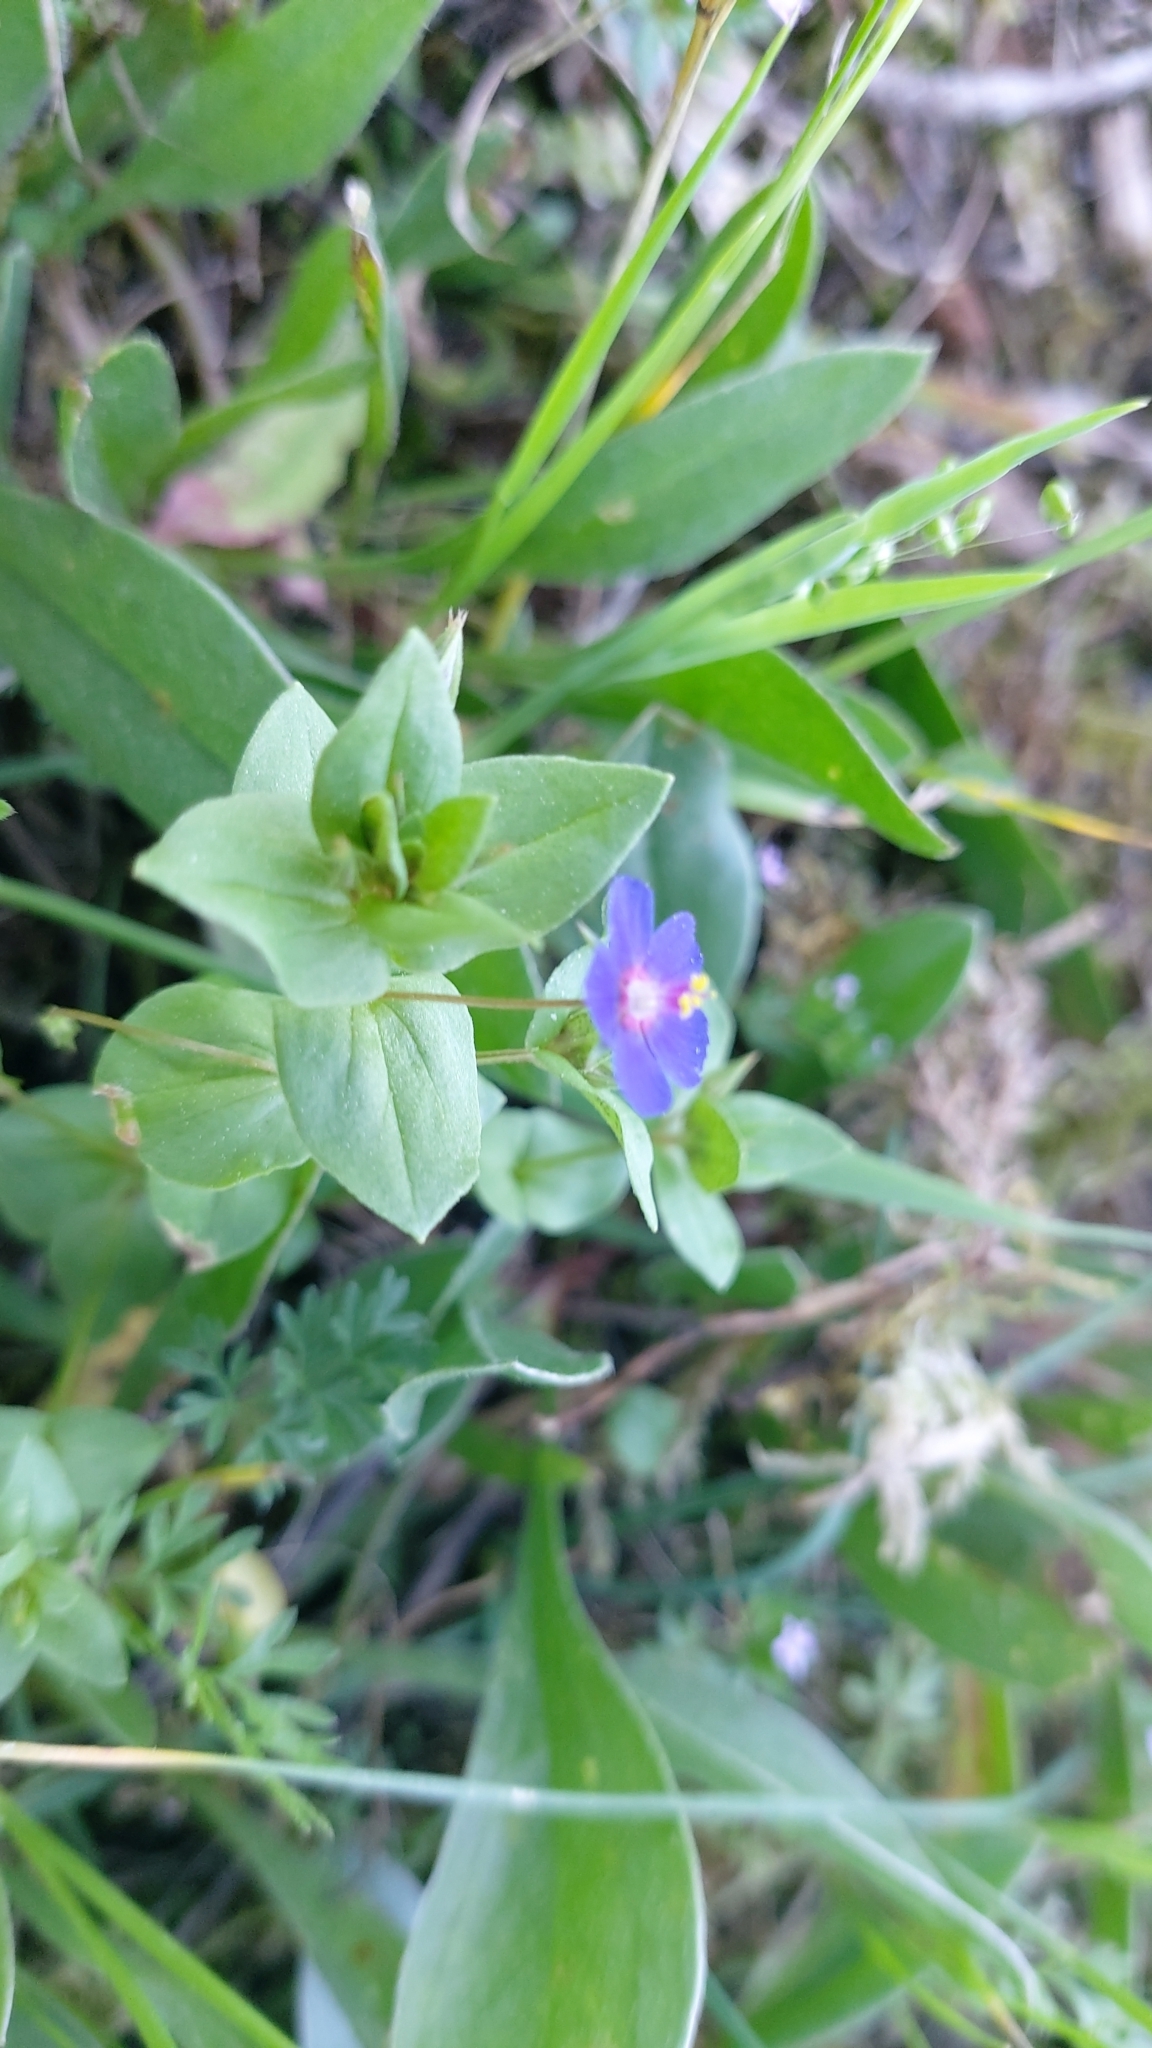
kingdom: Plantae
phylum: Tracheophyta
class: Magnoliopsida
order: Ericales
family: Primulaceae
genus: Lysimachia
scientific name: Lysimachia loeflingii
